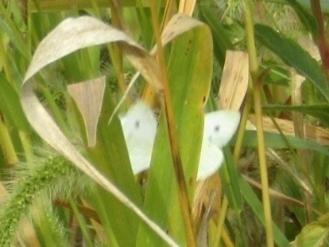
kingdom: Animalia
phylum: Arthropoda
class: Insecta
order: Lepidoptera
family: Pieridae
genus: Pieris
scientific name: Pieris rapae
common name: Small white
